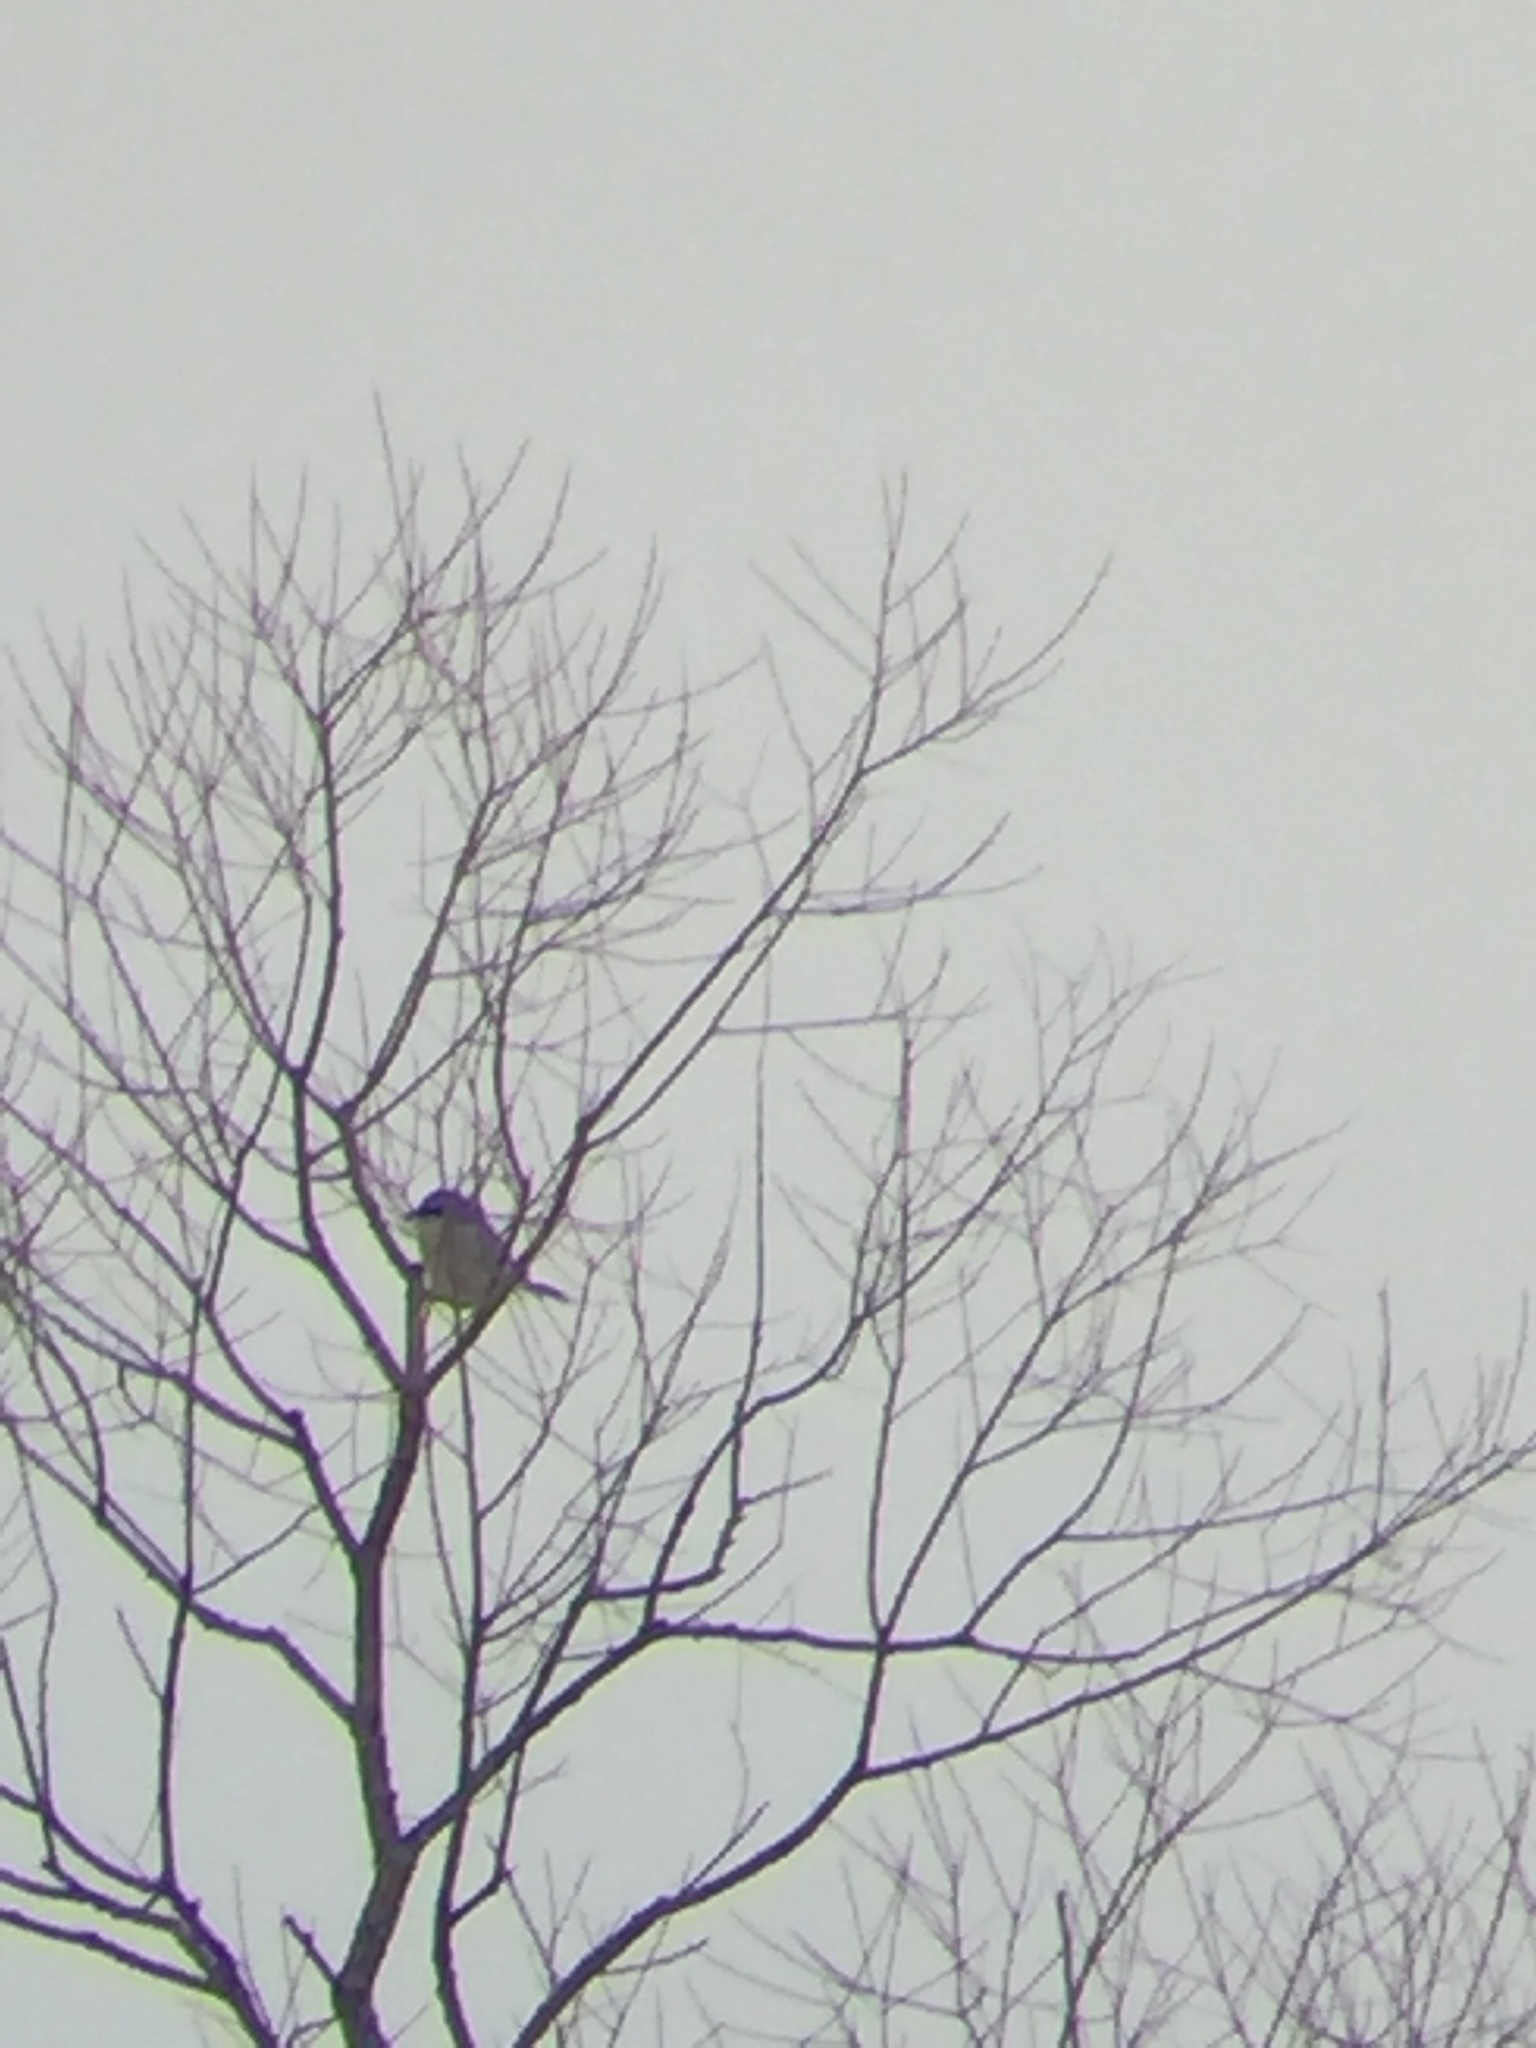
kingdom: Animalia
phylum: Chordata
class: Aves
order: Passeriformes
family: Laniidae
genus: Lanius
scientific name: Lanius borealis
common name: Northern shrike
